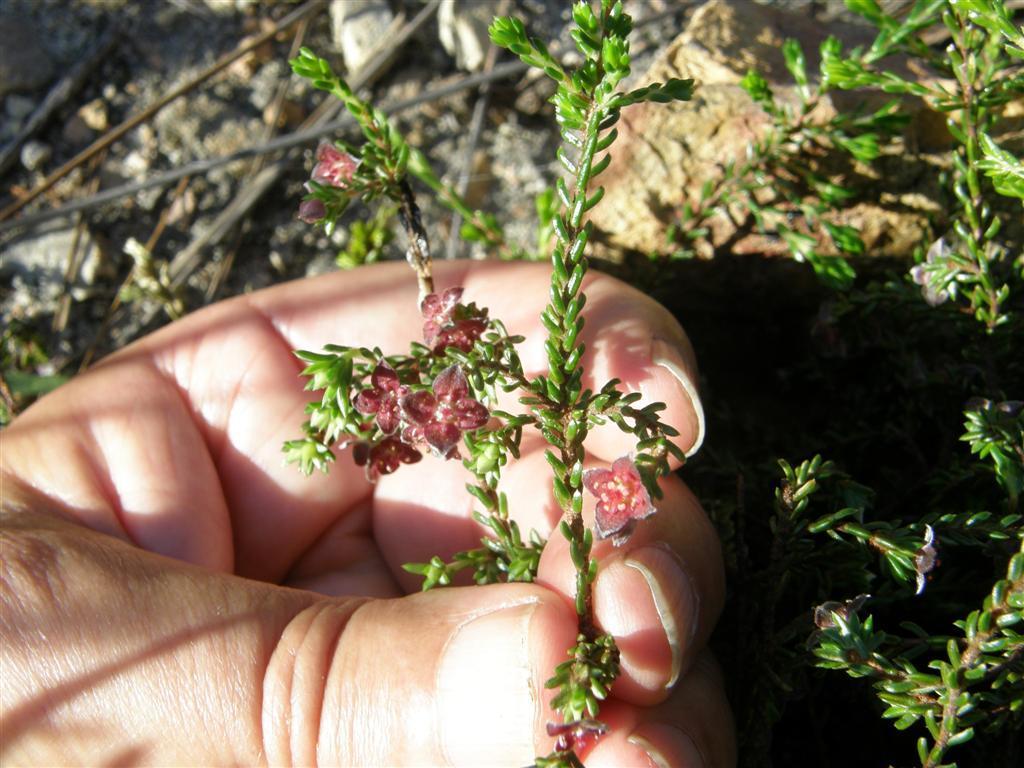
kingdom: Plantae
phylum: Tracheophyta
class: Magnoliopsida
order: Malvales
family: Thymelaeaceae
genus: Lachnaea
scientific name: Lachnaea pudens
